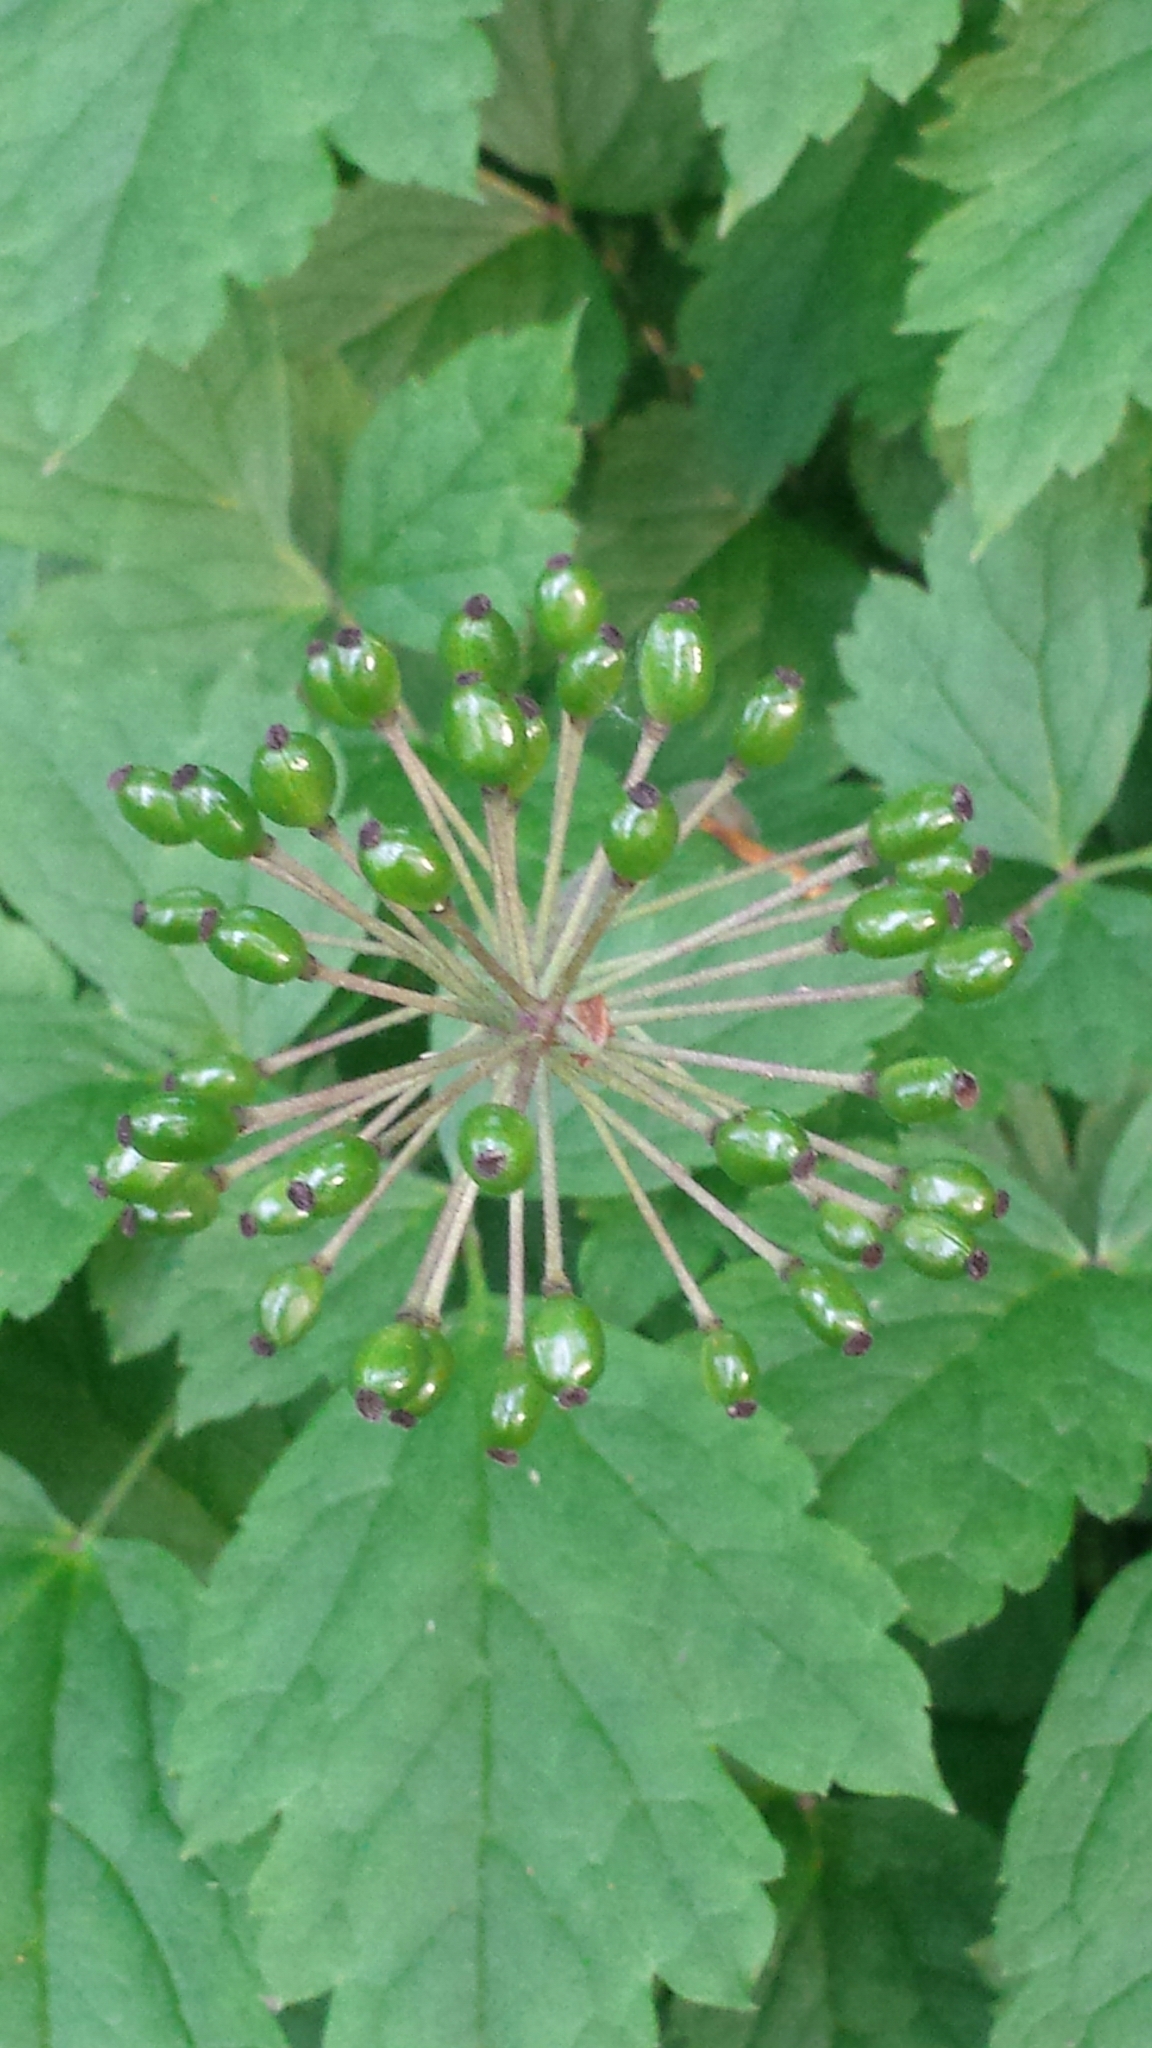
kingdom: Plantae
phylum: Tracheophyta
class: Magnoliopsida
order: Ranunculales
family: Ranunculaceae
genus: Actaea
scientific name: Actaea rubra
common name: Red baneberry
